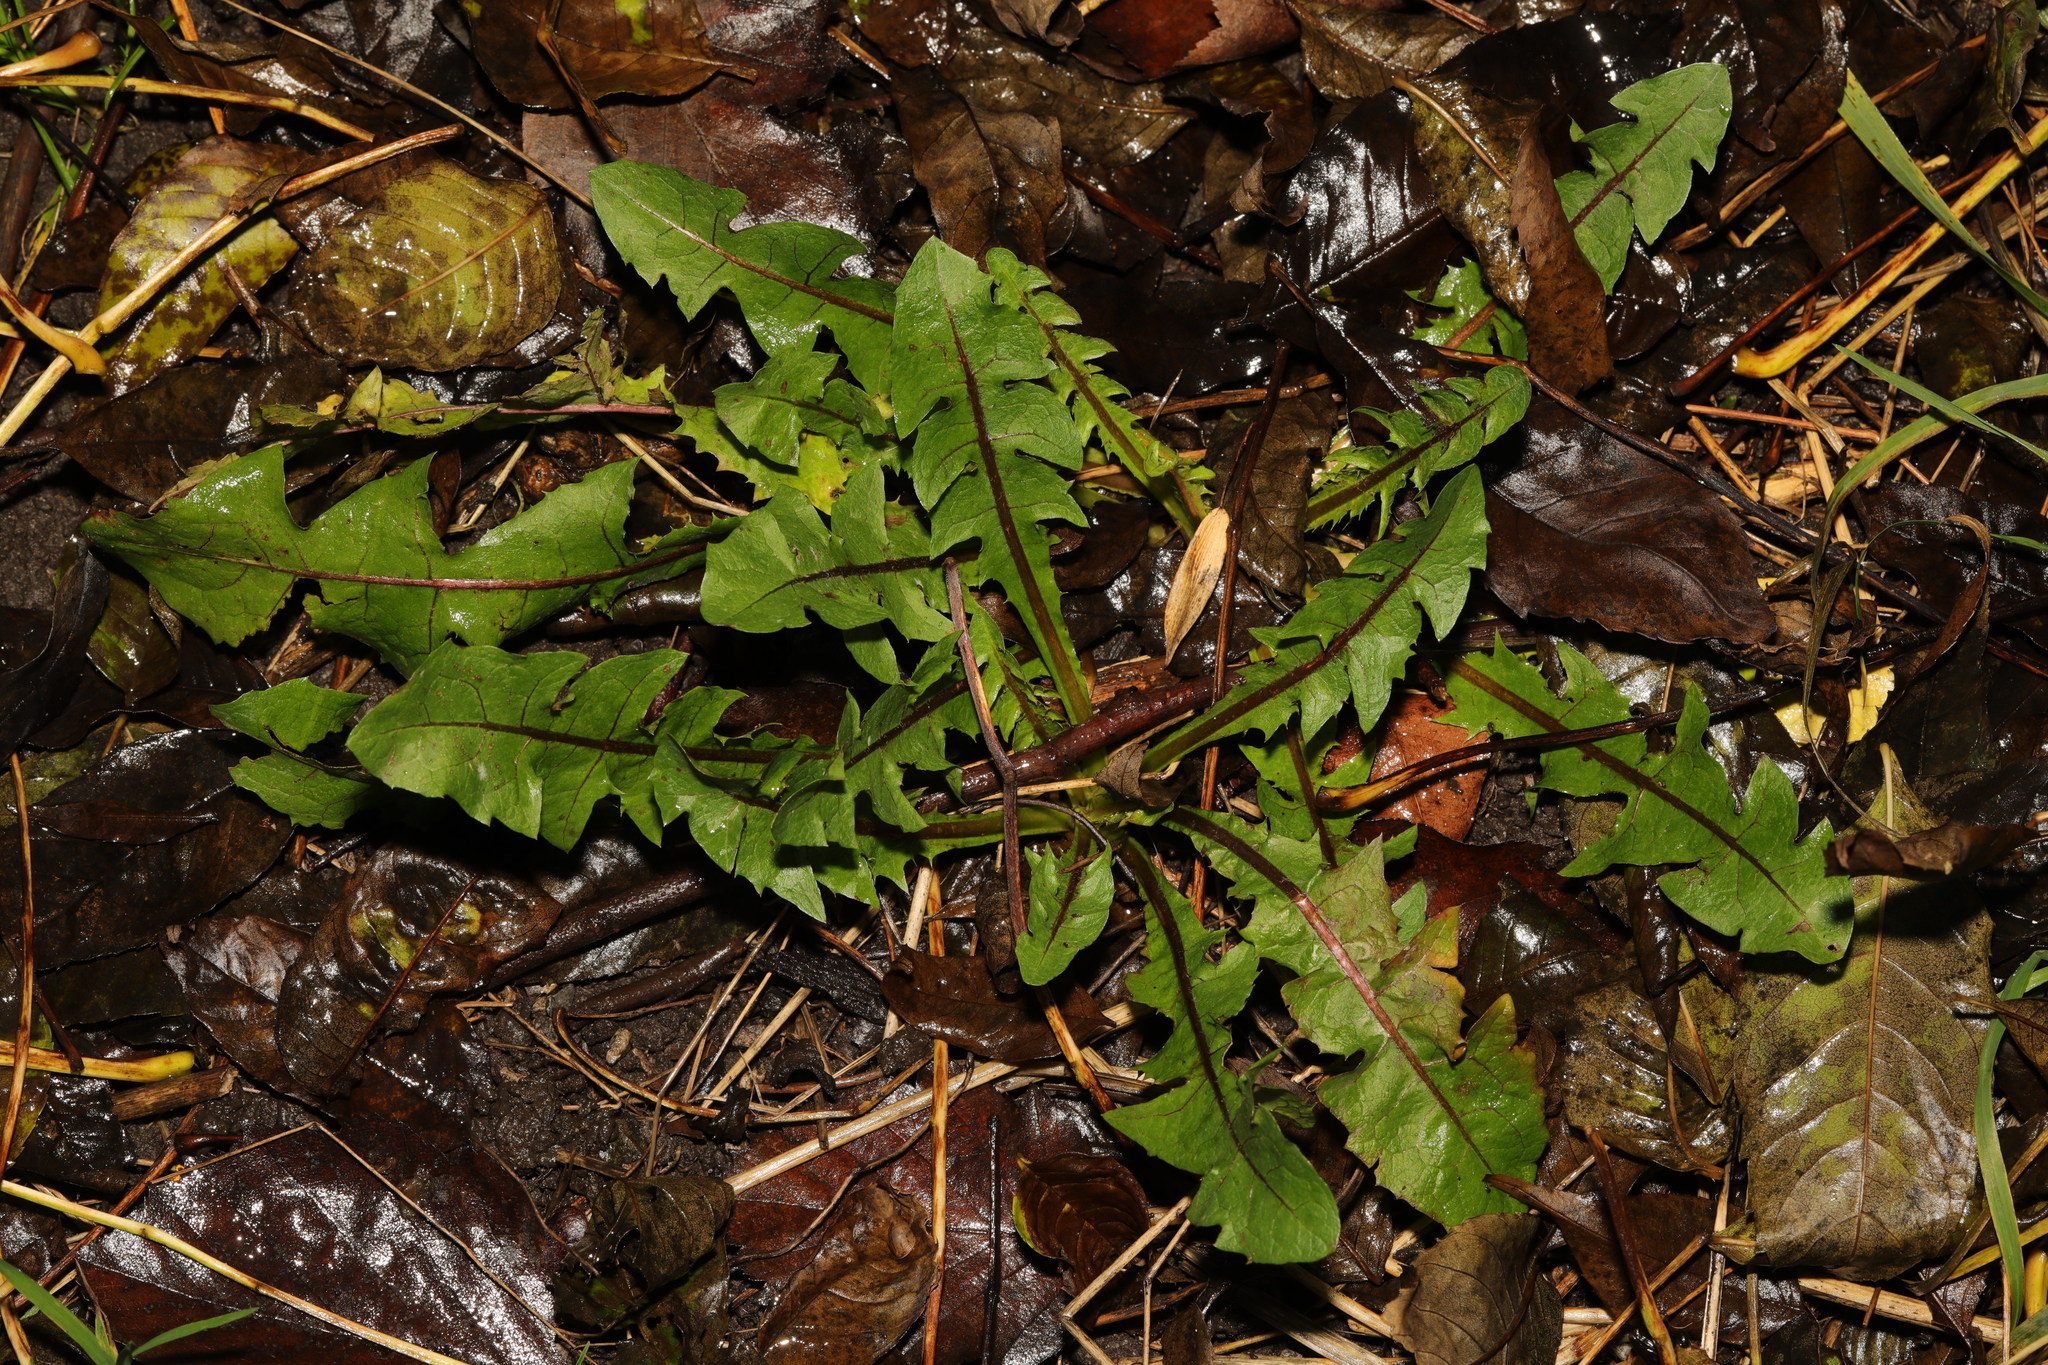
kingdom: Plantae
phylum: Tracheophyta
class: Magnoliopsida
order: Asterales
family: Asteraceae
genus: Taraxacum
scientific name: Taraxacum officinale
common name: Common dandelion
